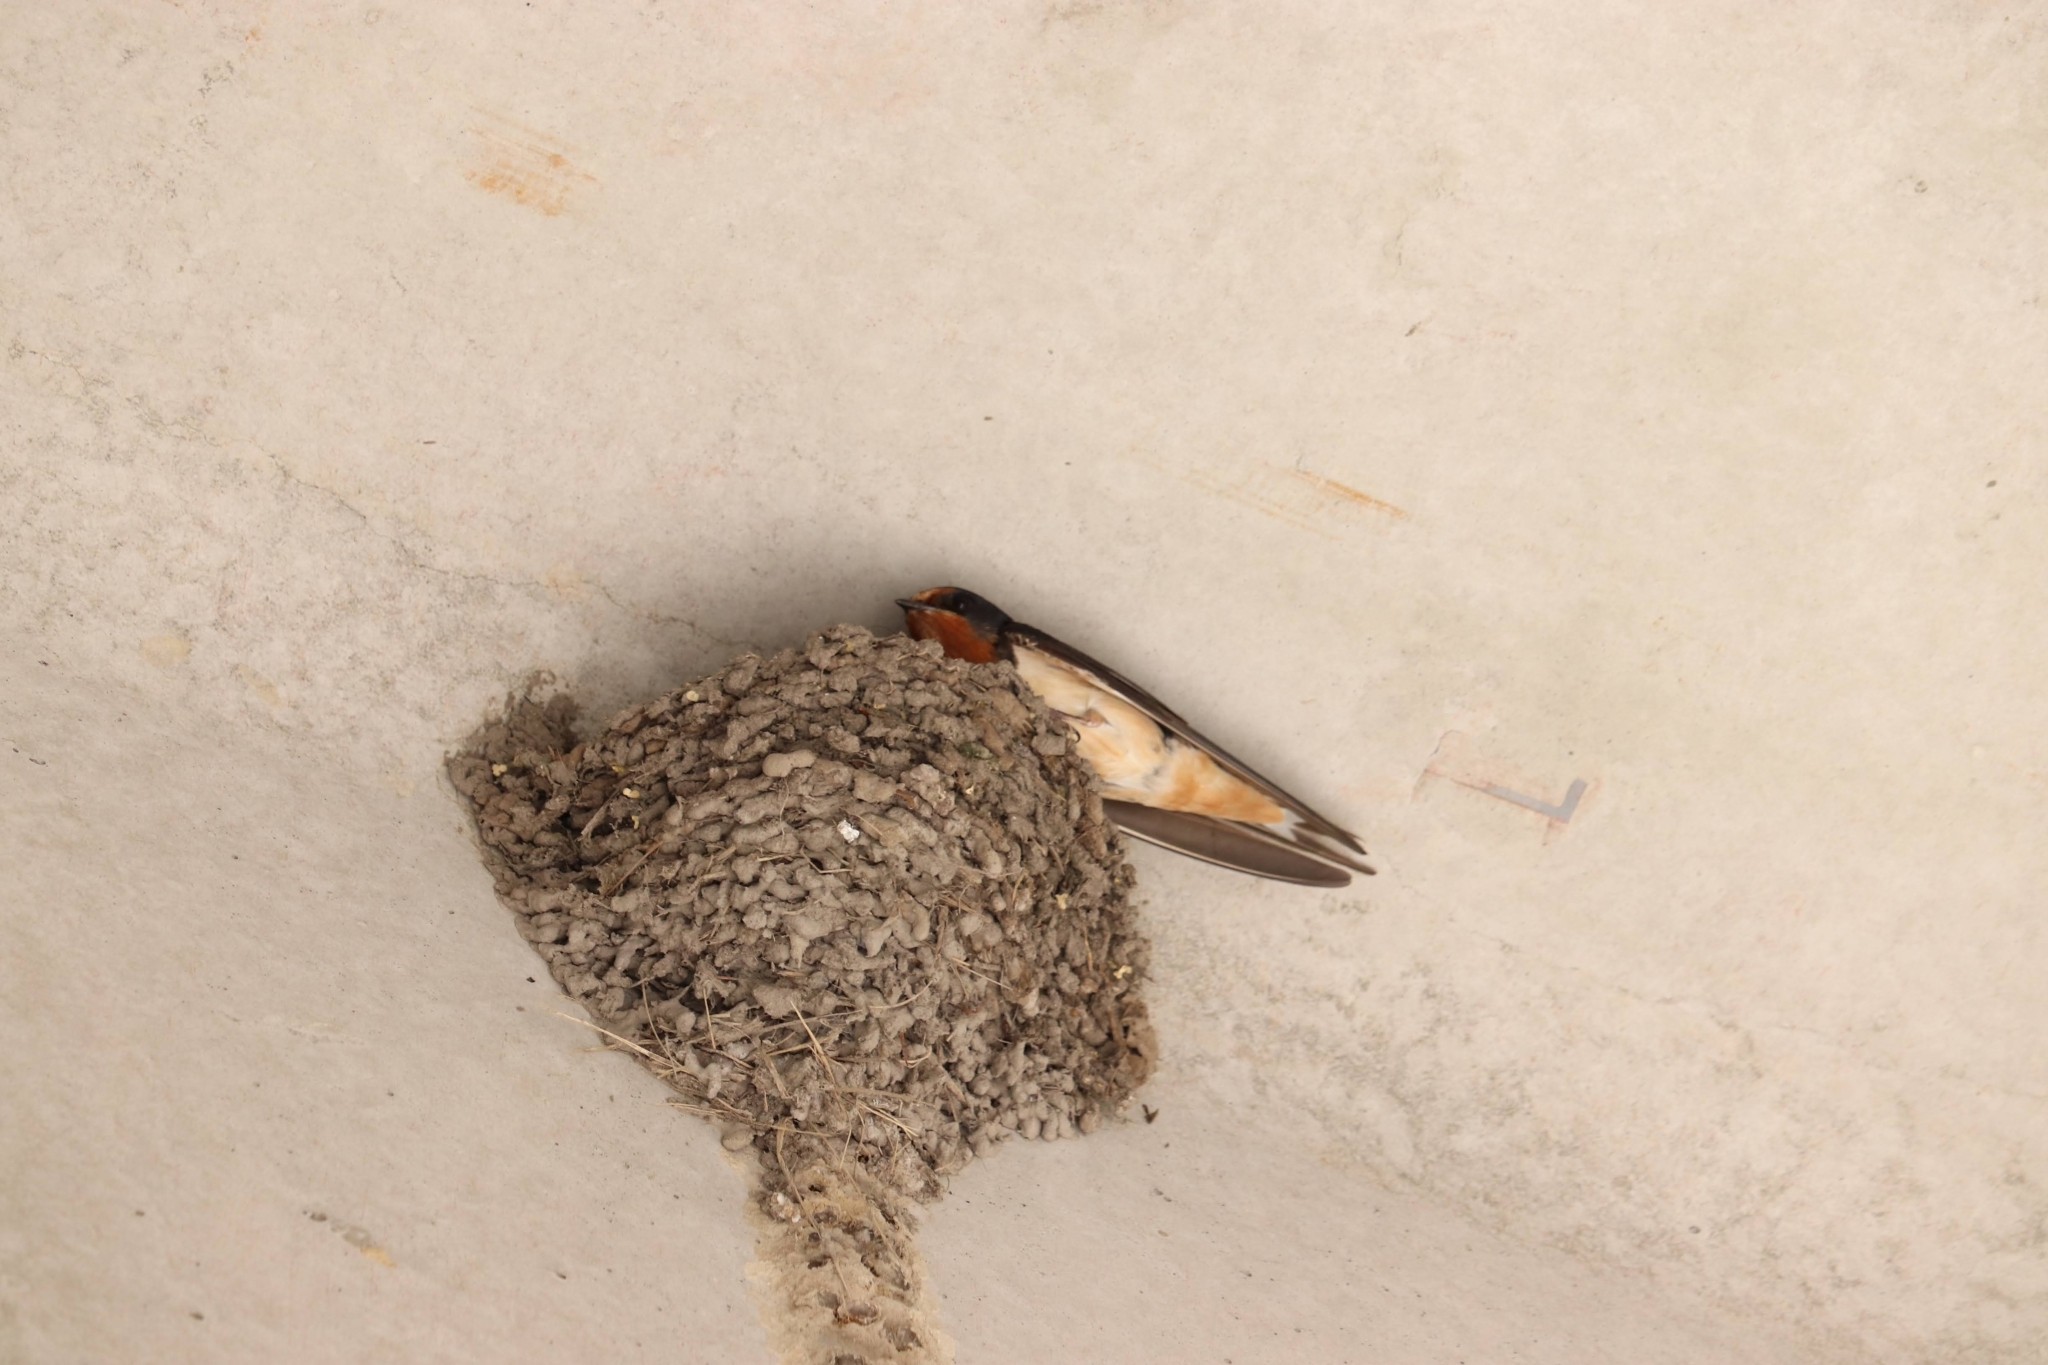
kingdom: Animalia
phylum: Chordata
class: Aves
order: Passeriformes
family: Hirundinidae
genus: Hirundo
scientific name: Hirundo rustica
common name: Barn swallow
